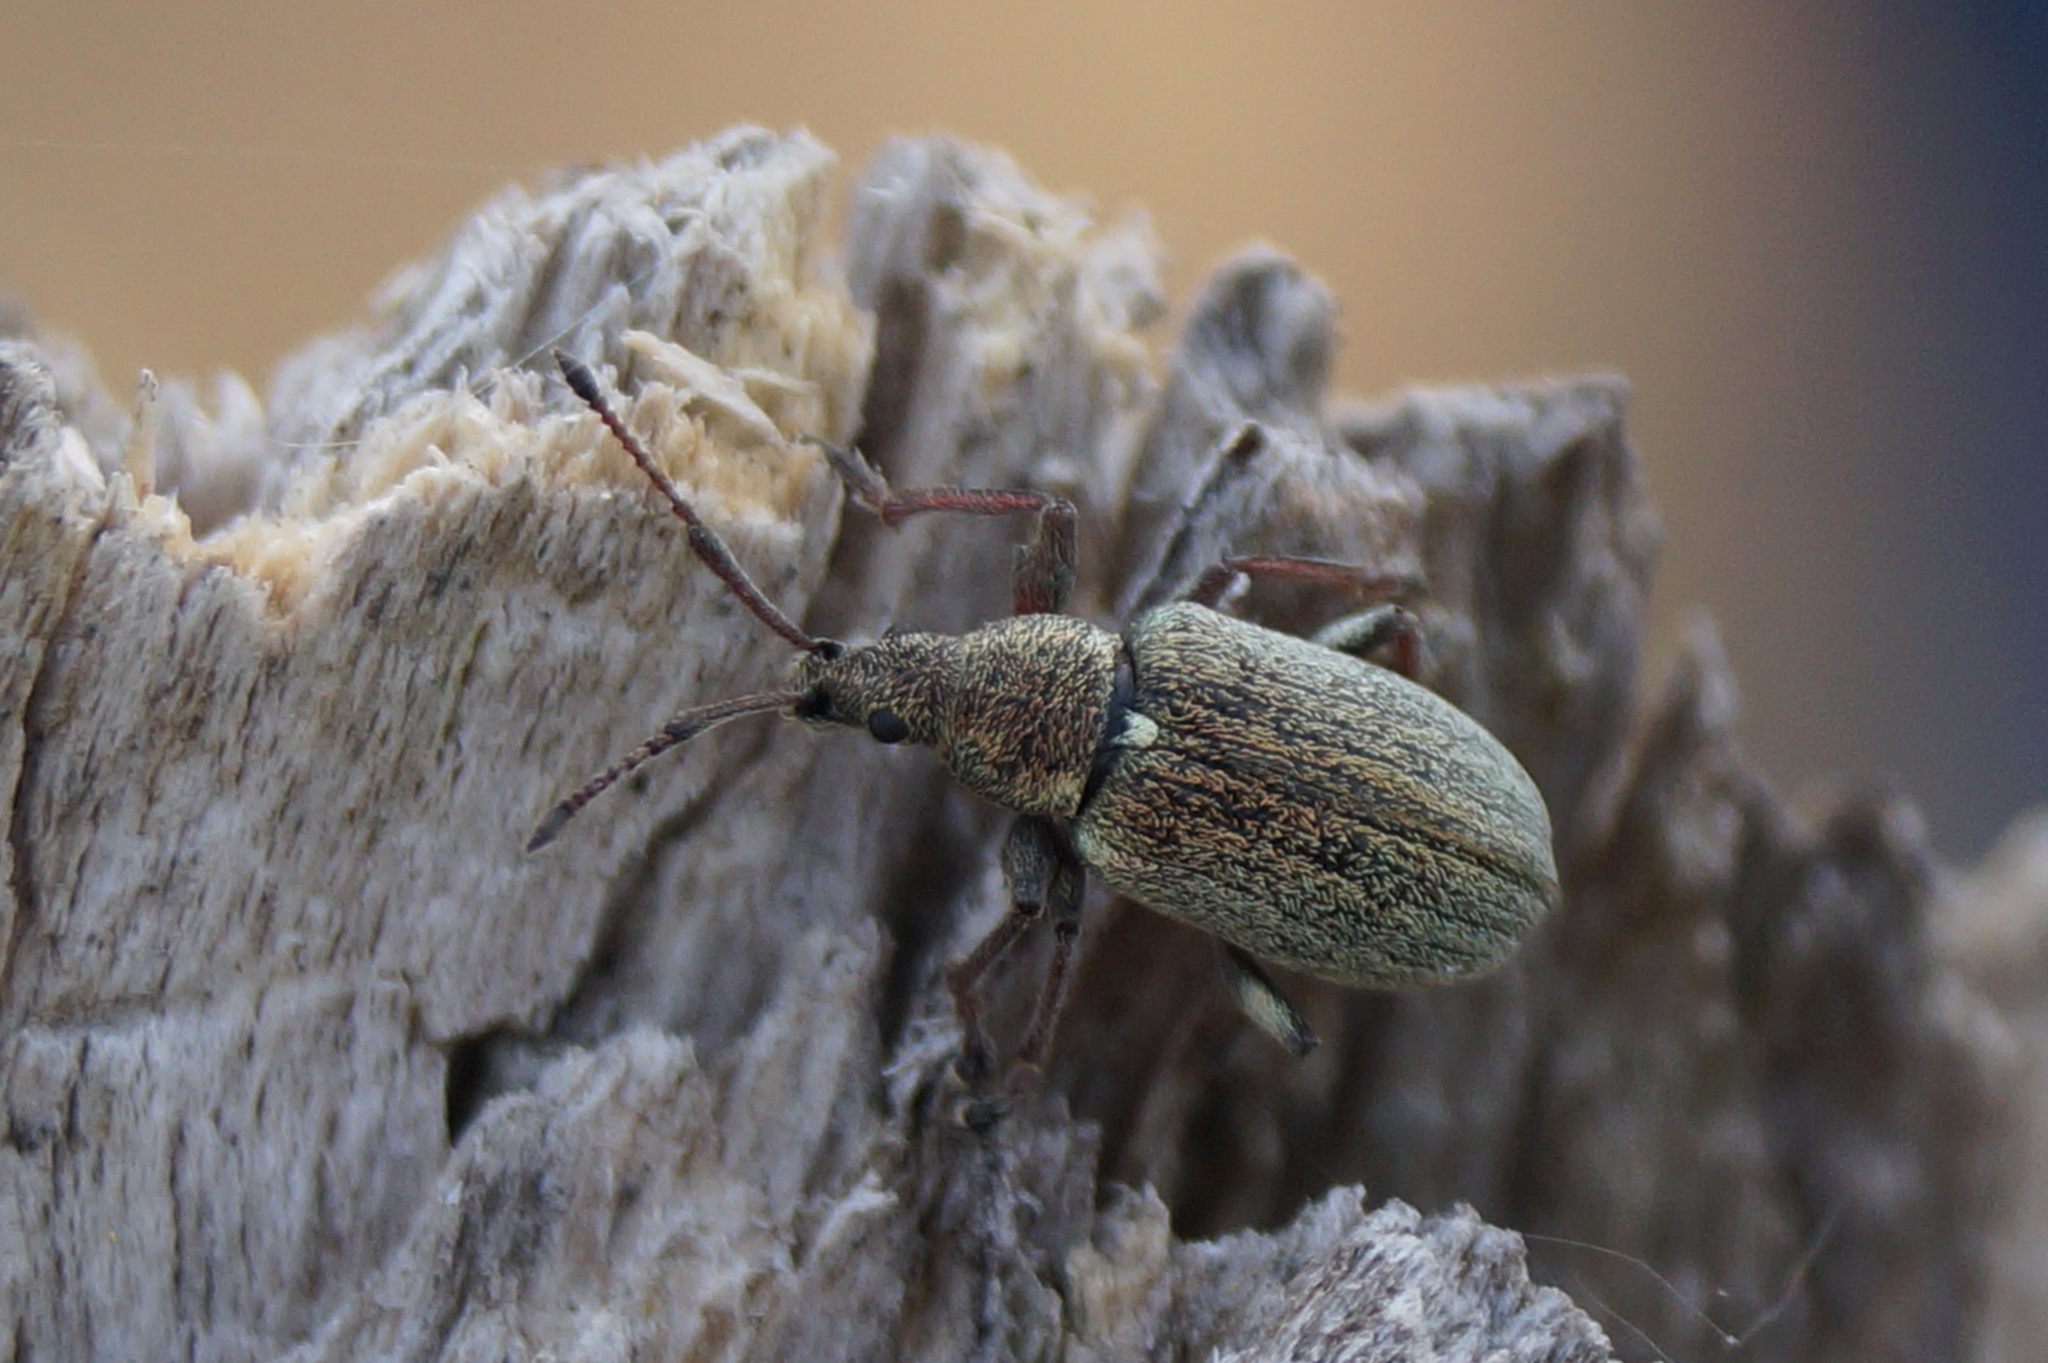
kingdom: Animalia
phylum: Arthropoda
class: Insecta
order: Coleoptera
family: Curculionidae
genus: Phyllobius
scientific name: Phyllobius pyri
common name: Common leaf weevil
